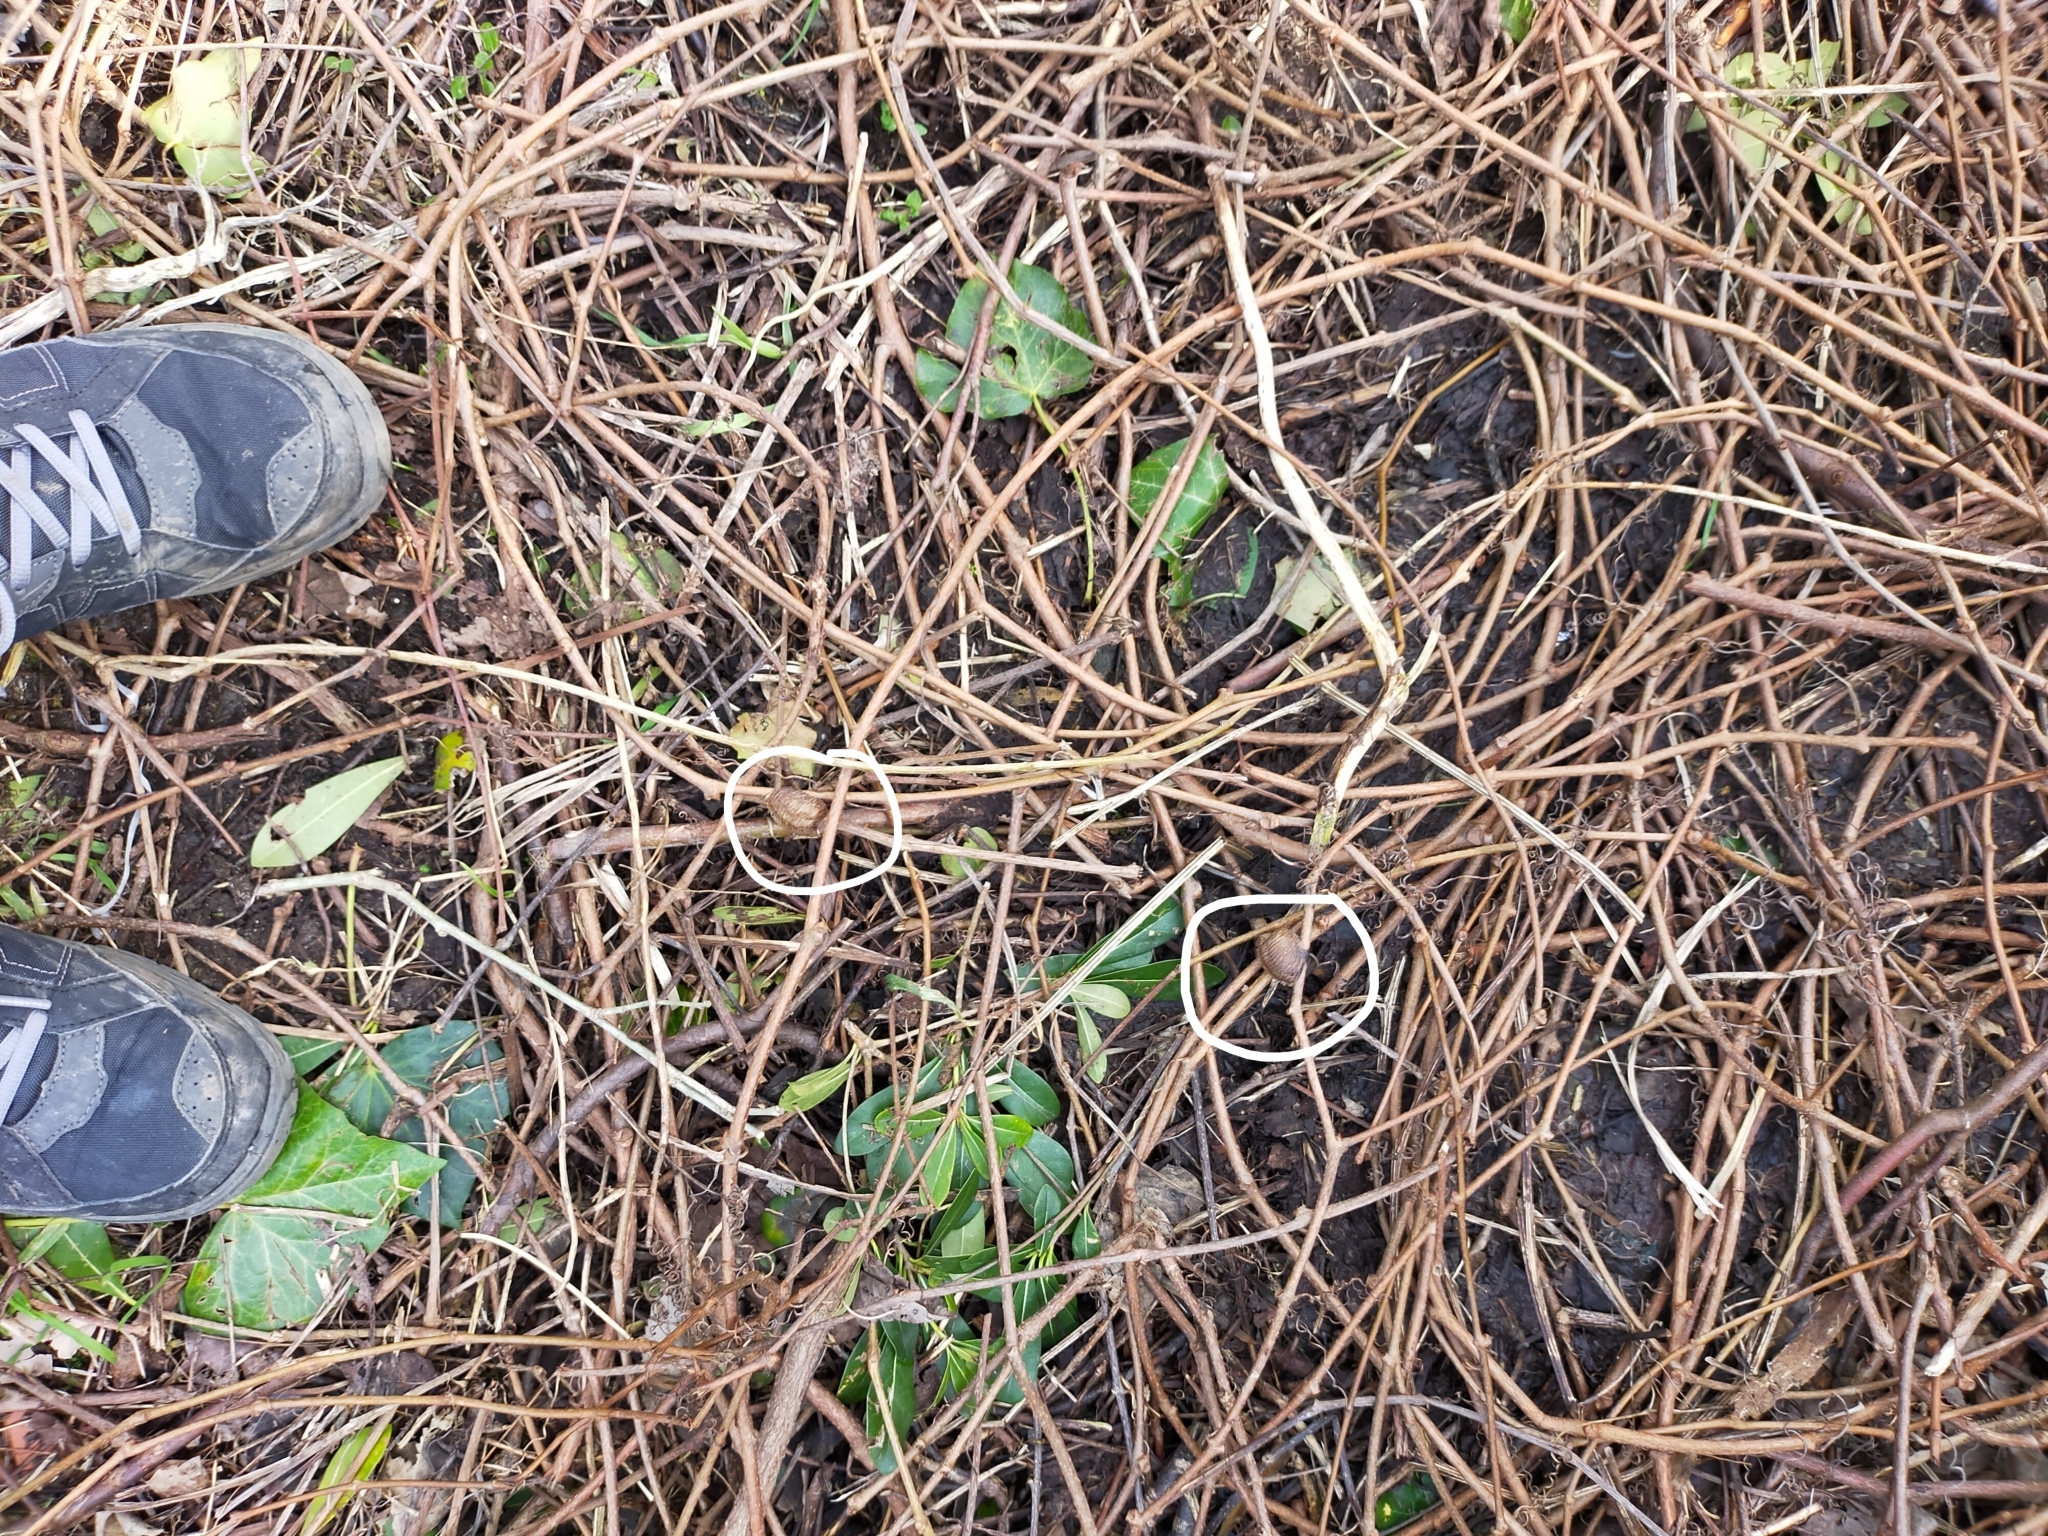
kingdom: Animalia
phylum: Arthropoda
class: Insecta
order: Mantodea
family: Mantidae
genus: Hierodula
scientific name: Hierodula transcaucasica
